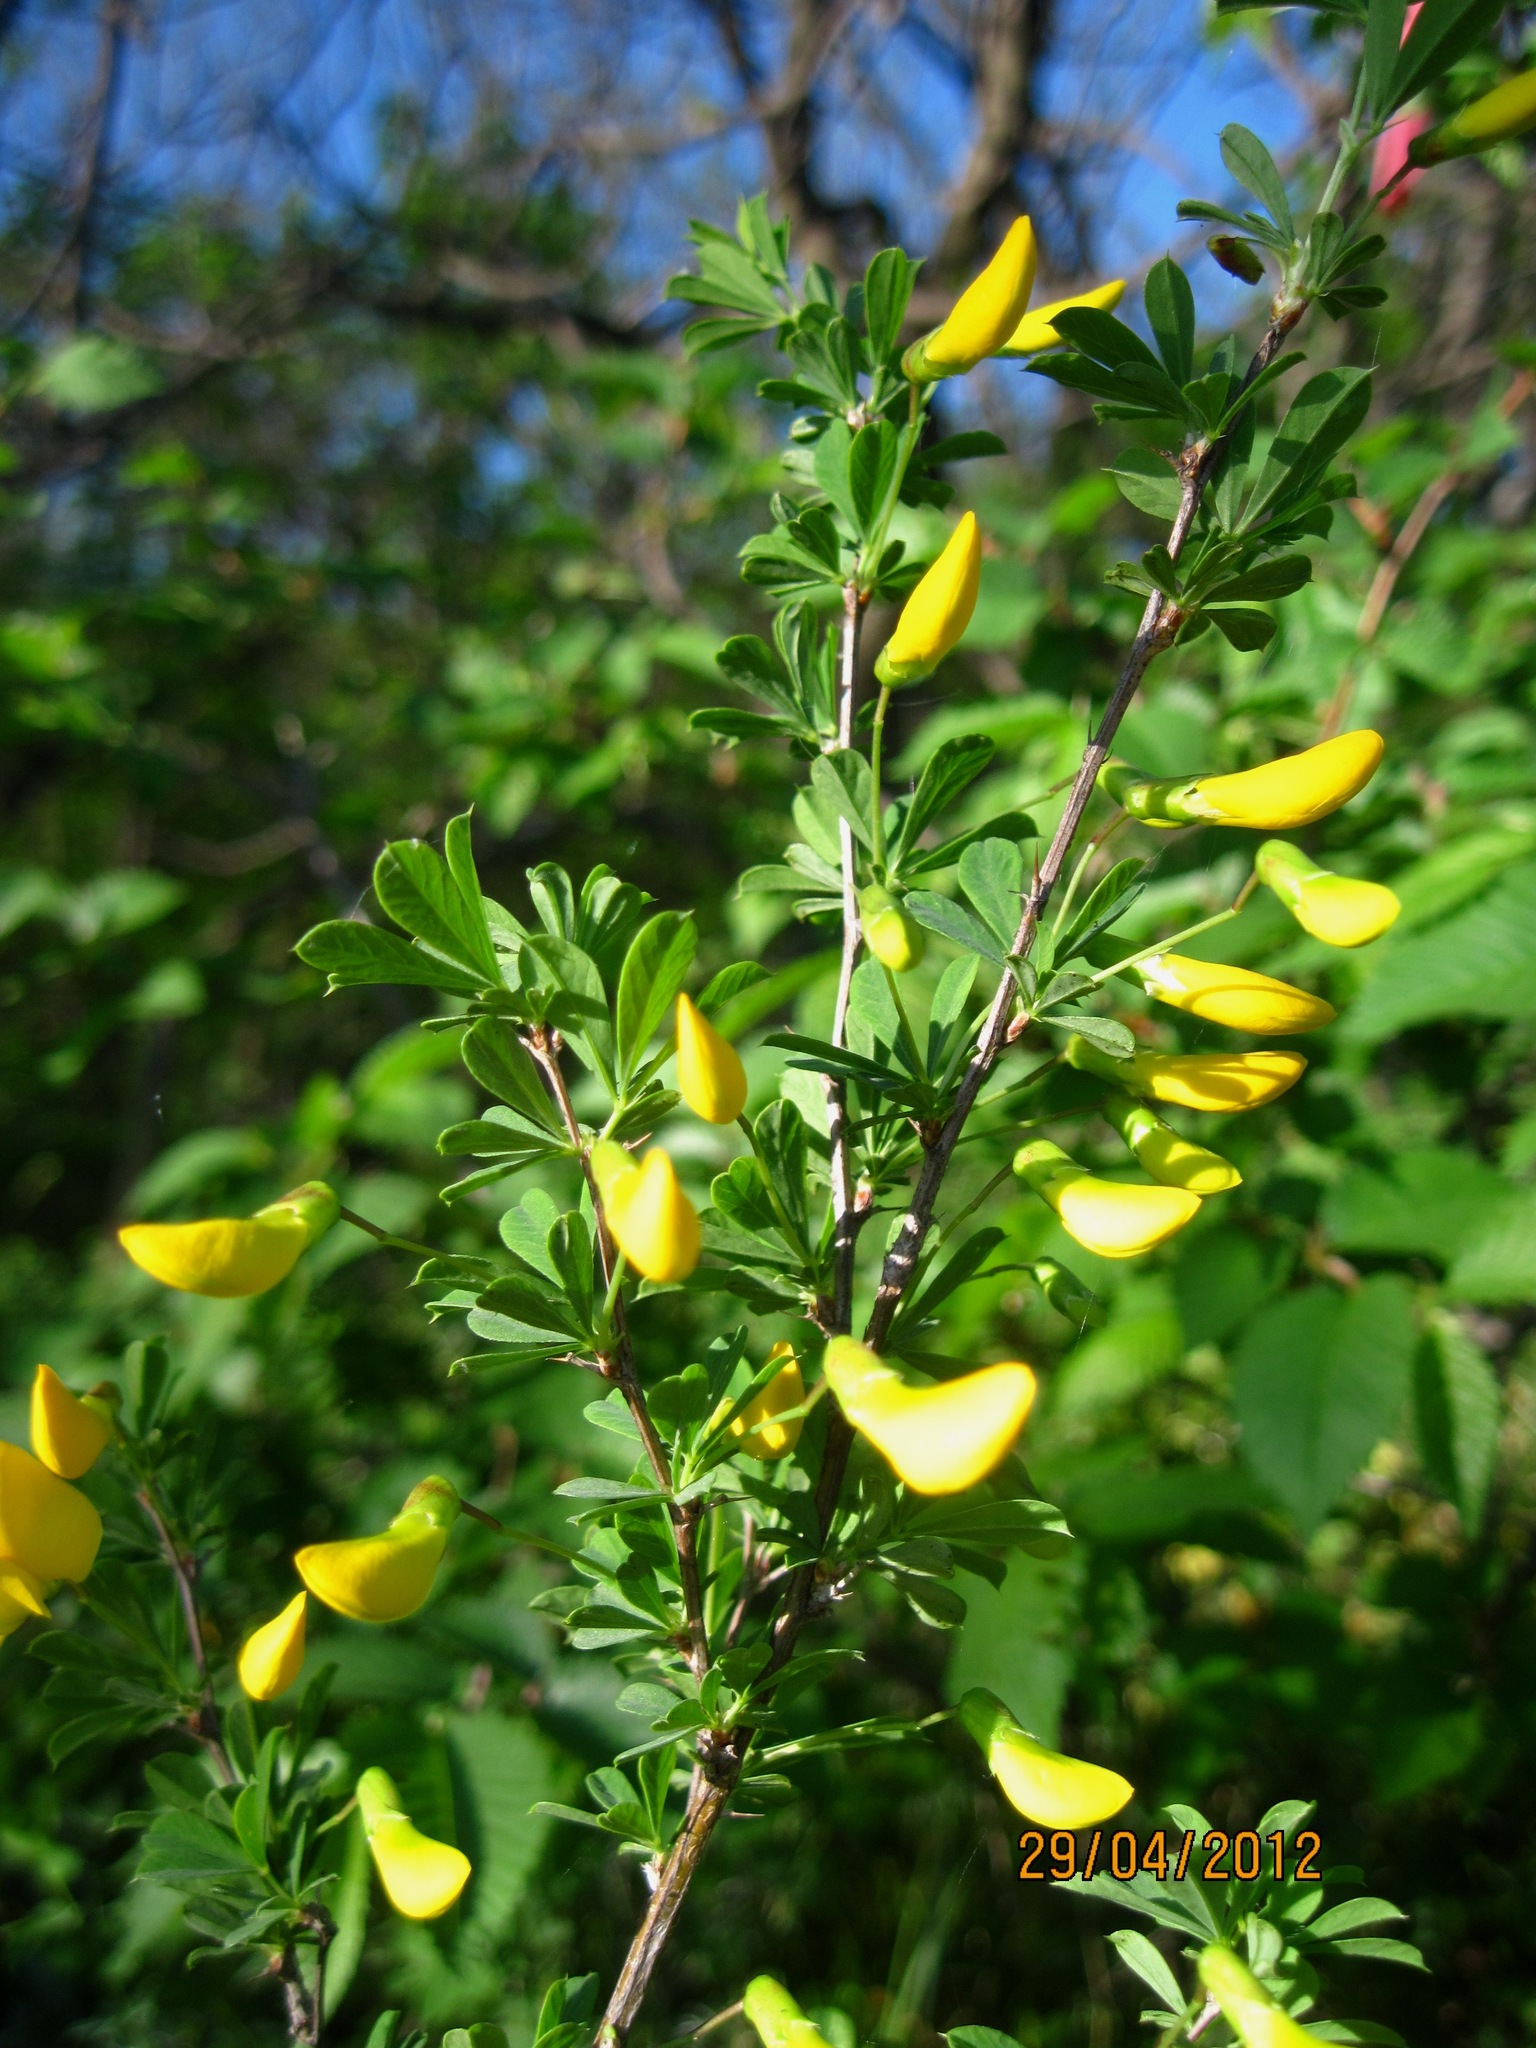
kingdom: Plantae
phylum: Tracheophyta
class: Magnoliopsida
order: Fabales
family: Fabaceae
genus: Caragana
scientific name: Caragana frutex
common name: Russian peashrub
